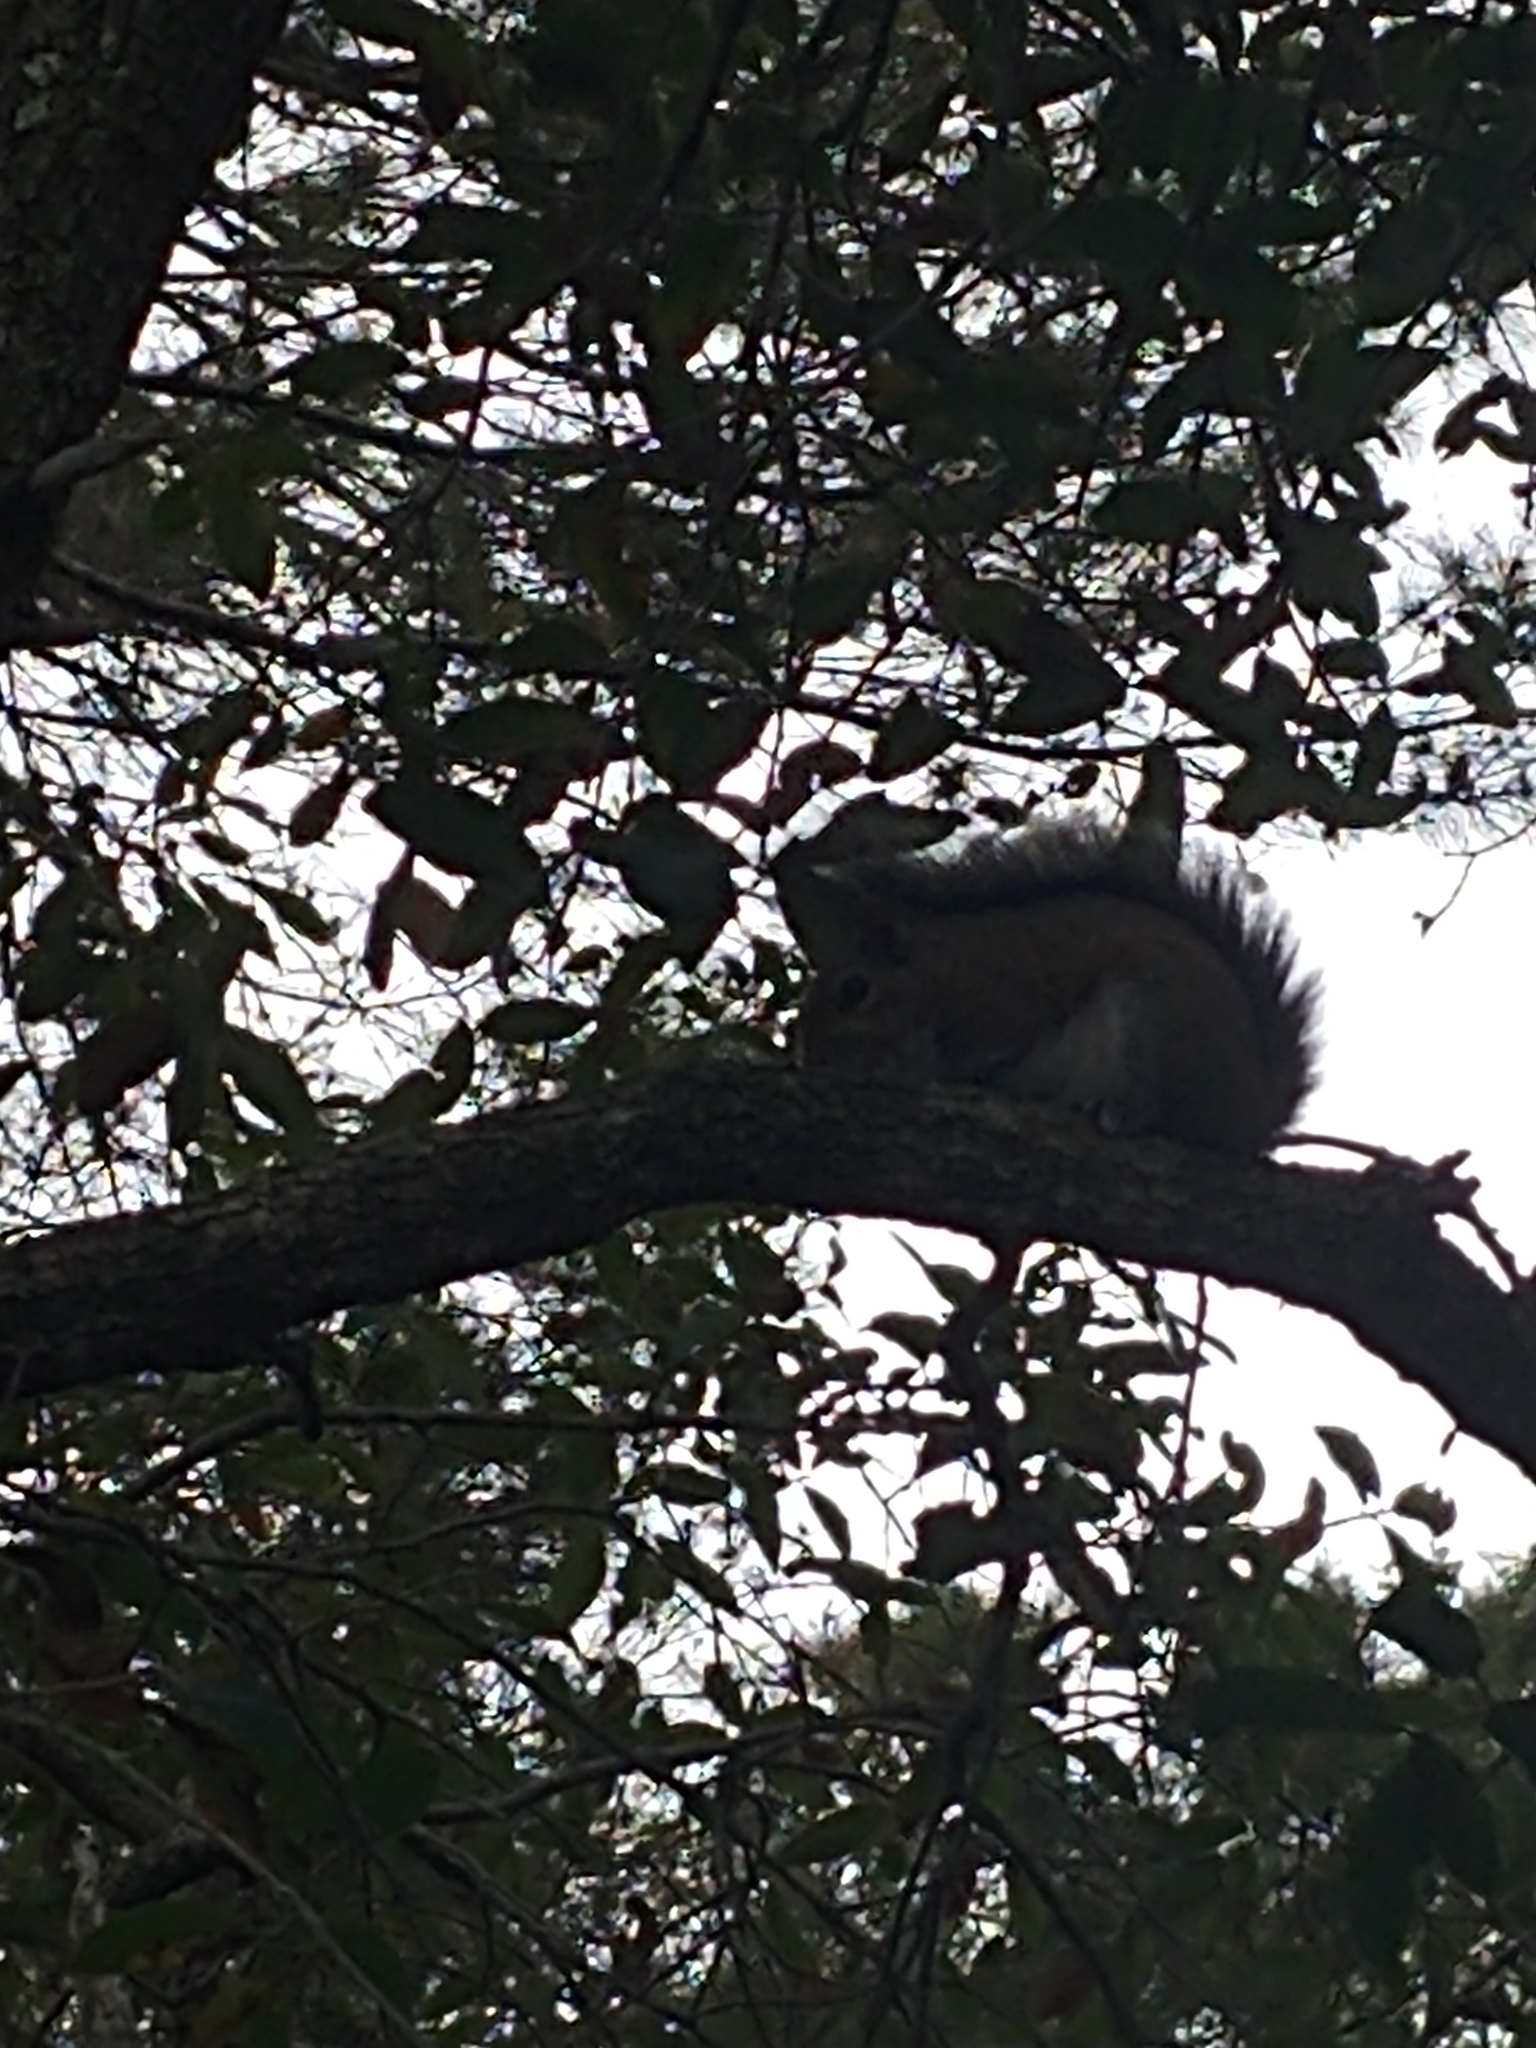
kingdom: Animalia
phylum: Chordata
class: Mammalia
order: Rodentia
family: Sciuridae
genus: Sciurus
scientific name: Sciurus carolinensis
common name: Eastern gray squirrel
